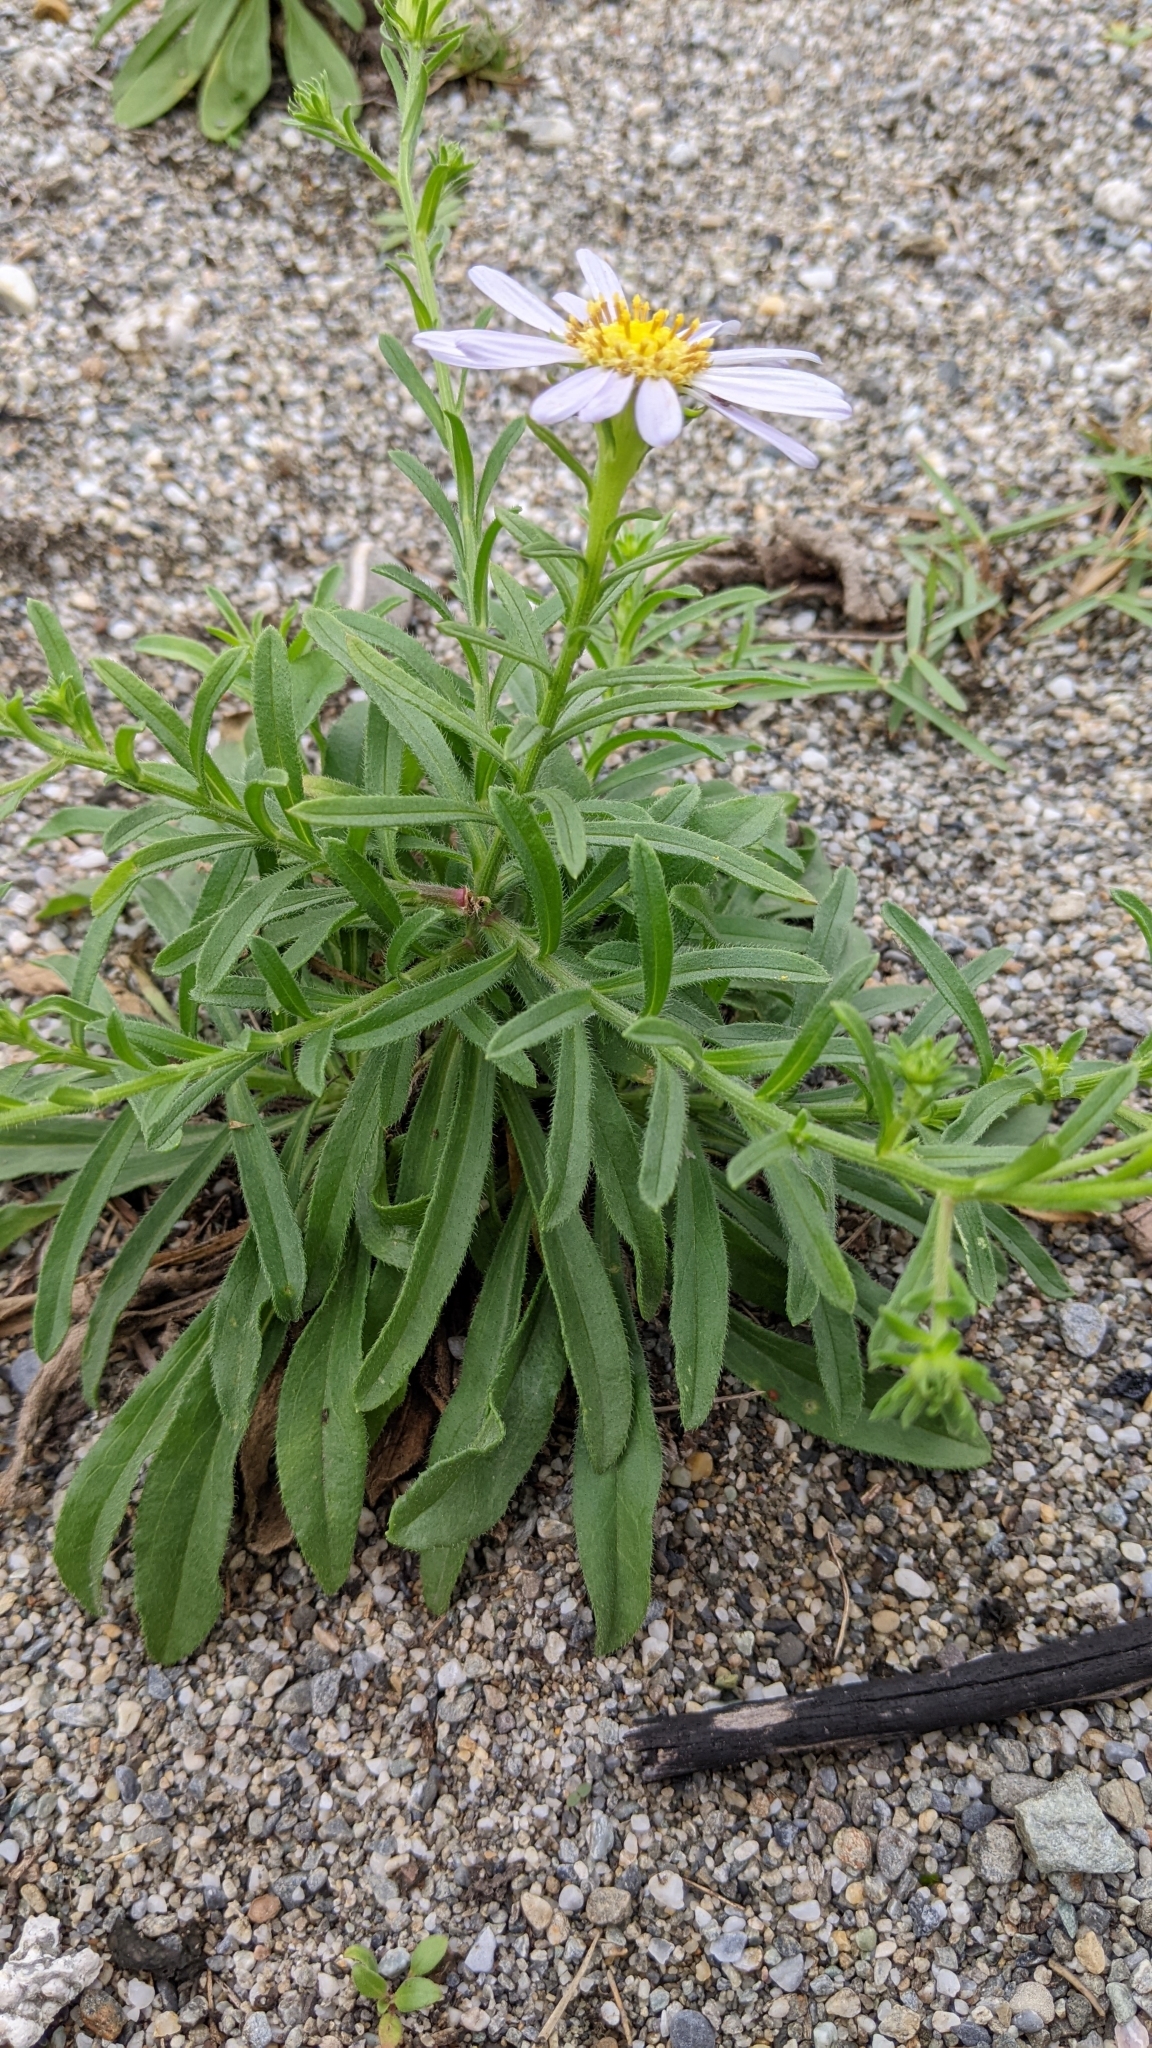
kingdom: Plantae
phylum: Tracheophyta
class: Magnoliopsida
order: Asterales
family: Asteraceae
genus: Heteropappus
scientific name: Heteropappus oldhamii
